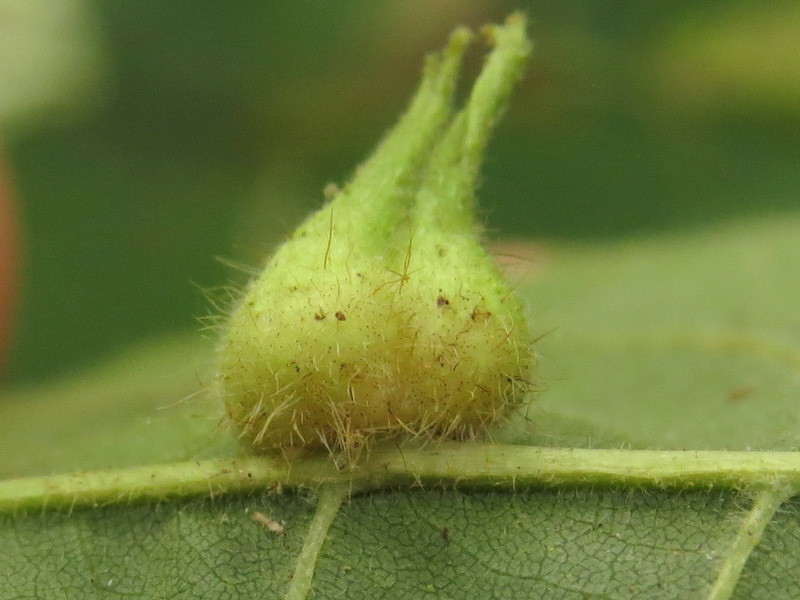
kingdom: Animalia
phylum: Arthropoda
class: Insecta
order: Diptera
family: Cecidomyiidae
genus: Caryomyia
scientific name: Caryomyia ansericollum
